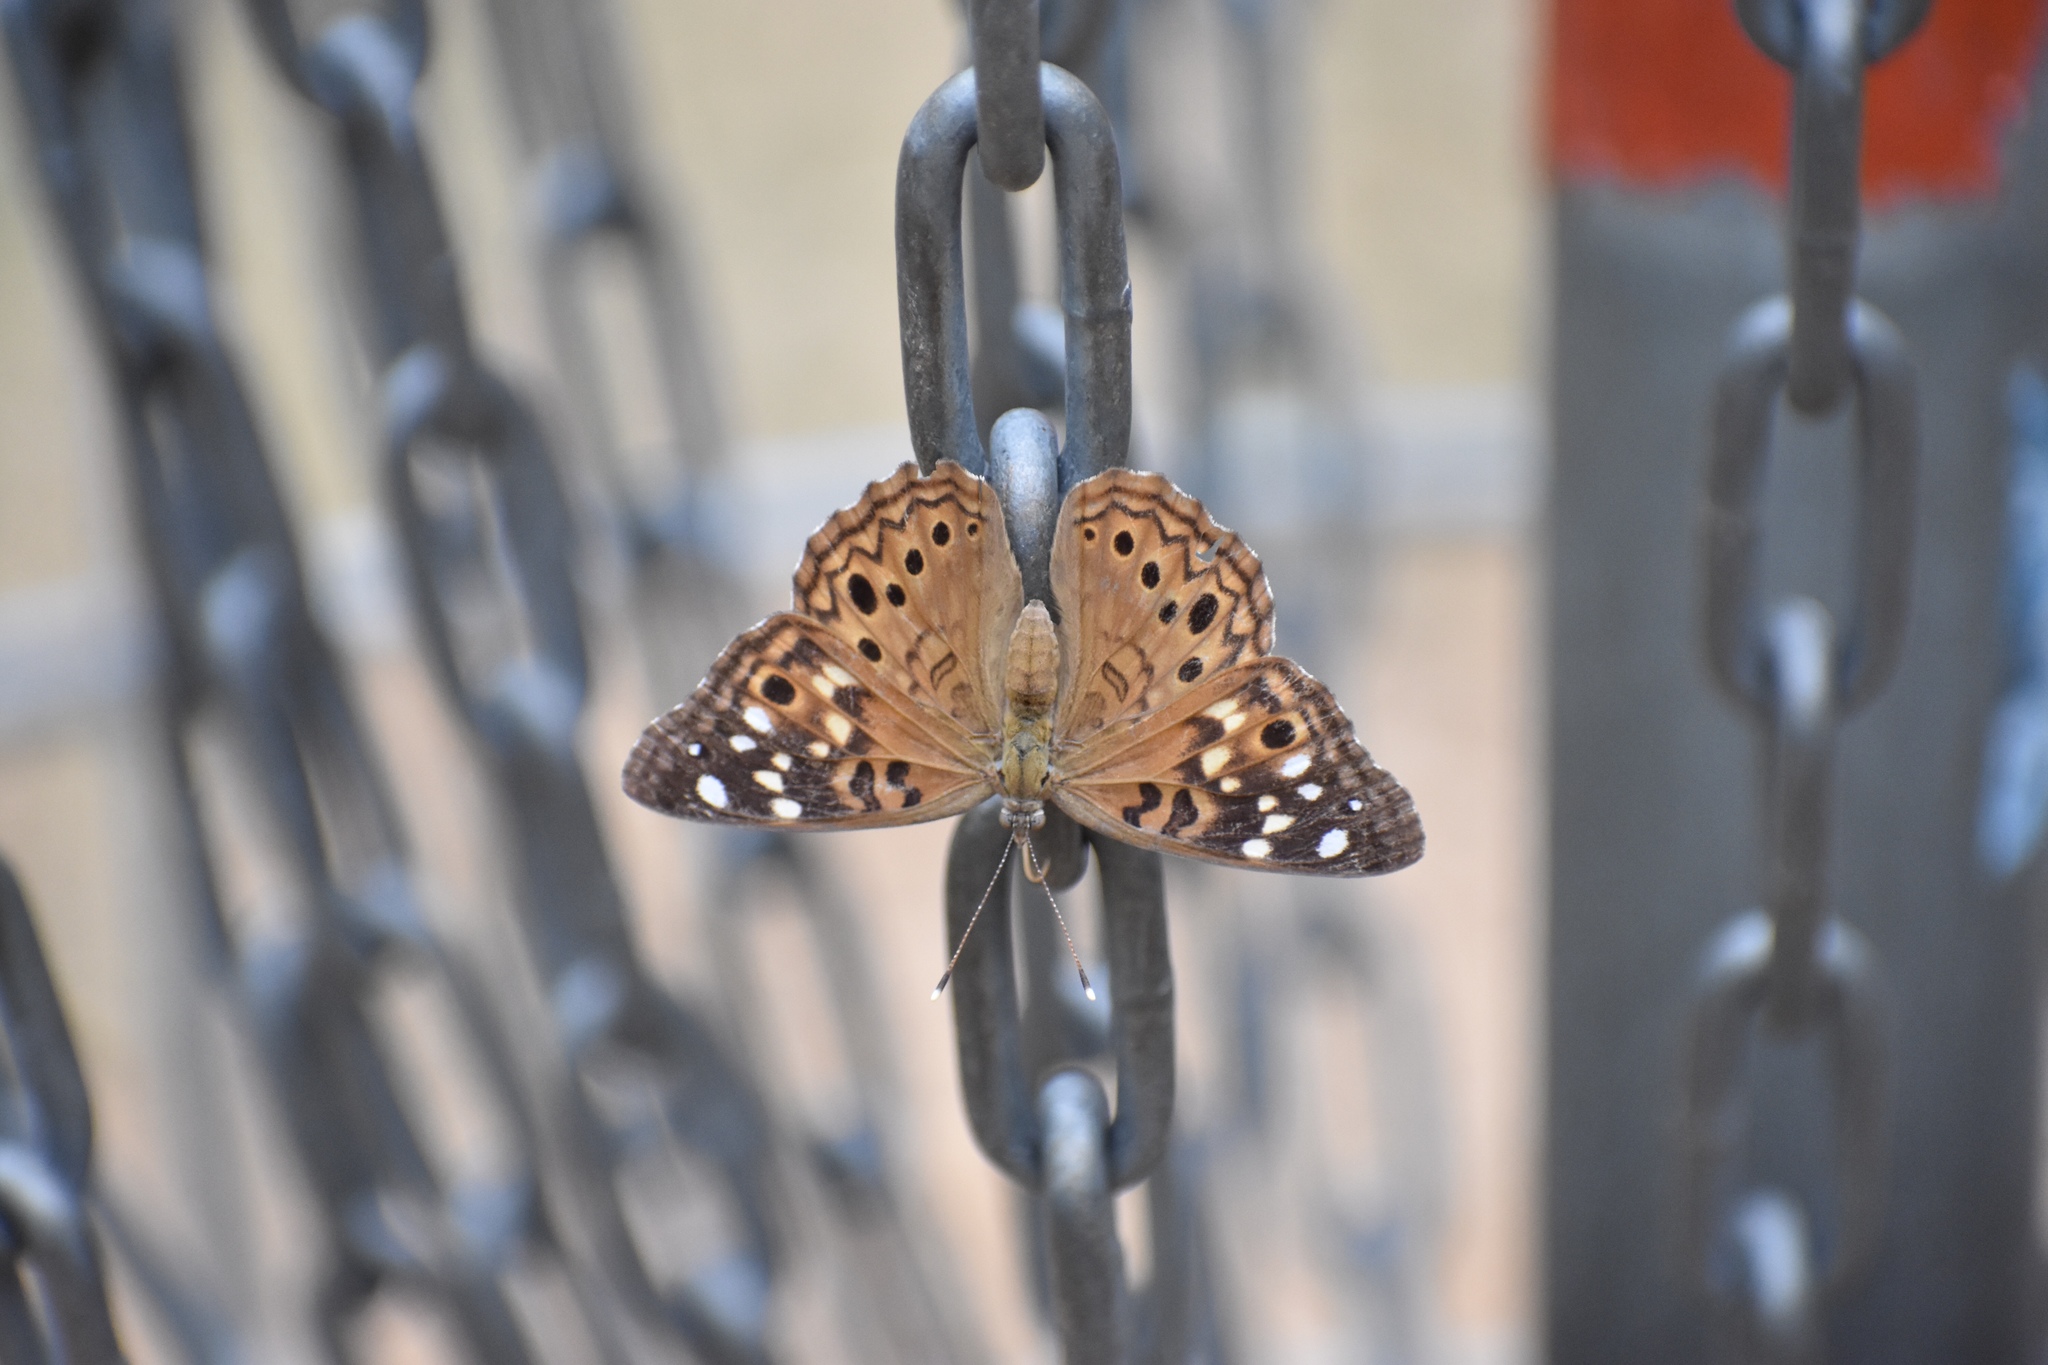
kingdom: Animalia
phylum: Arthropoda
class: Insecta
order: Lepidoptera
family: Nymphalidae
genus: Asterocampa
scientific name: Asterocampa celtis
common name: Hackberry emperor
